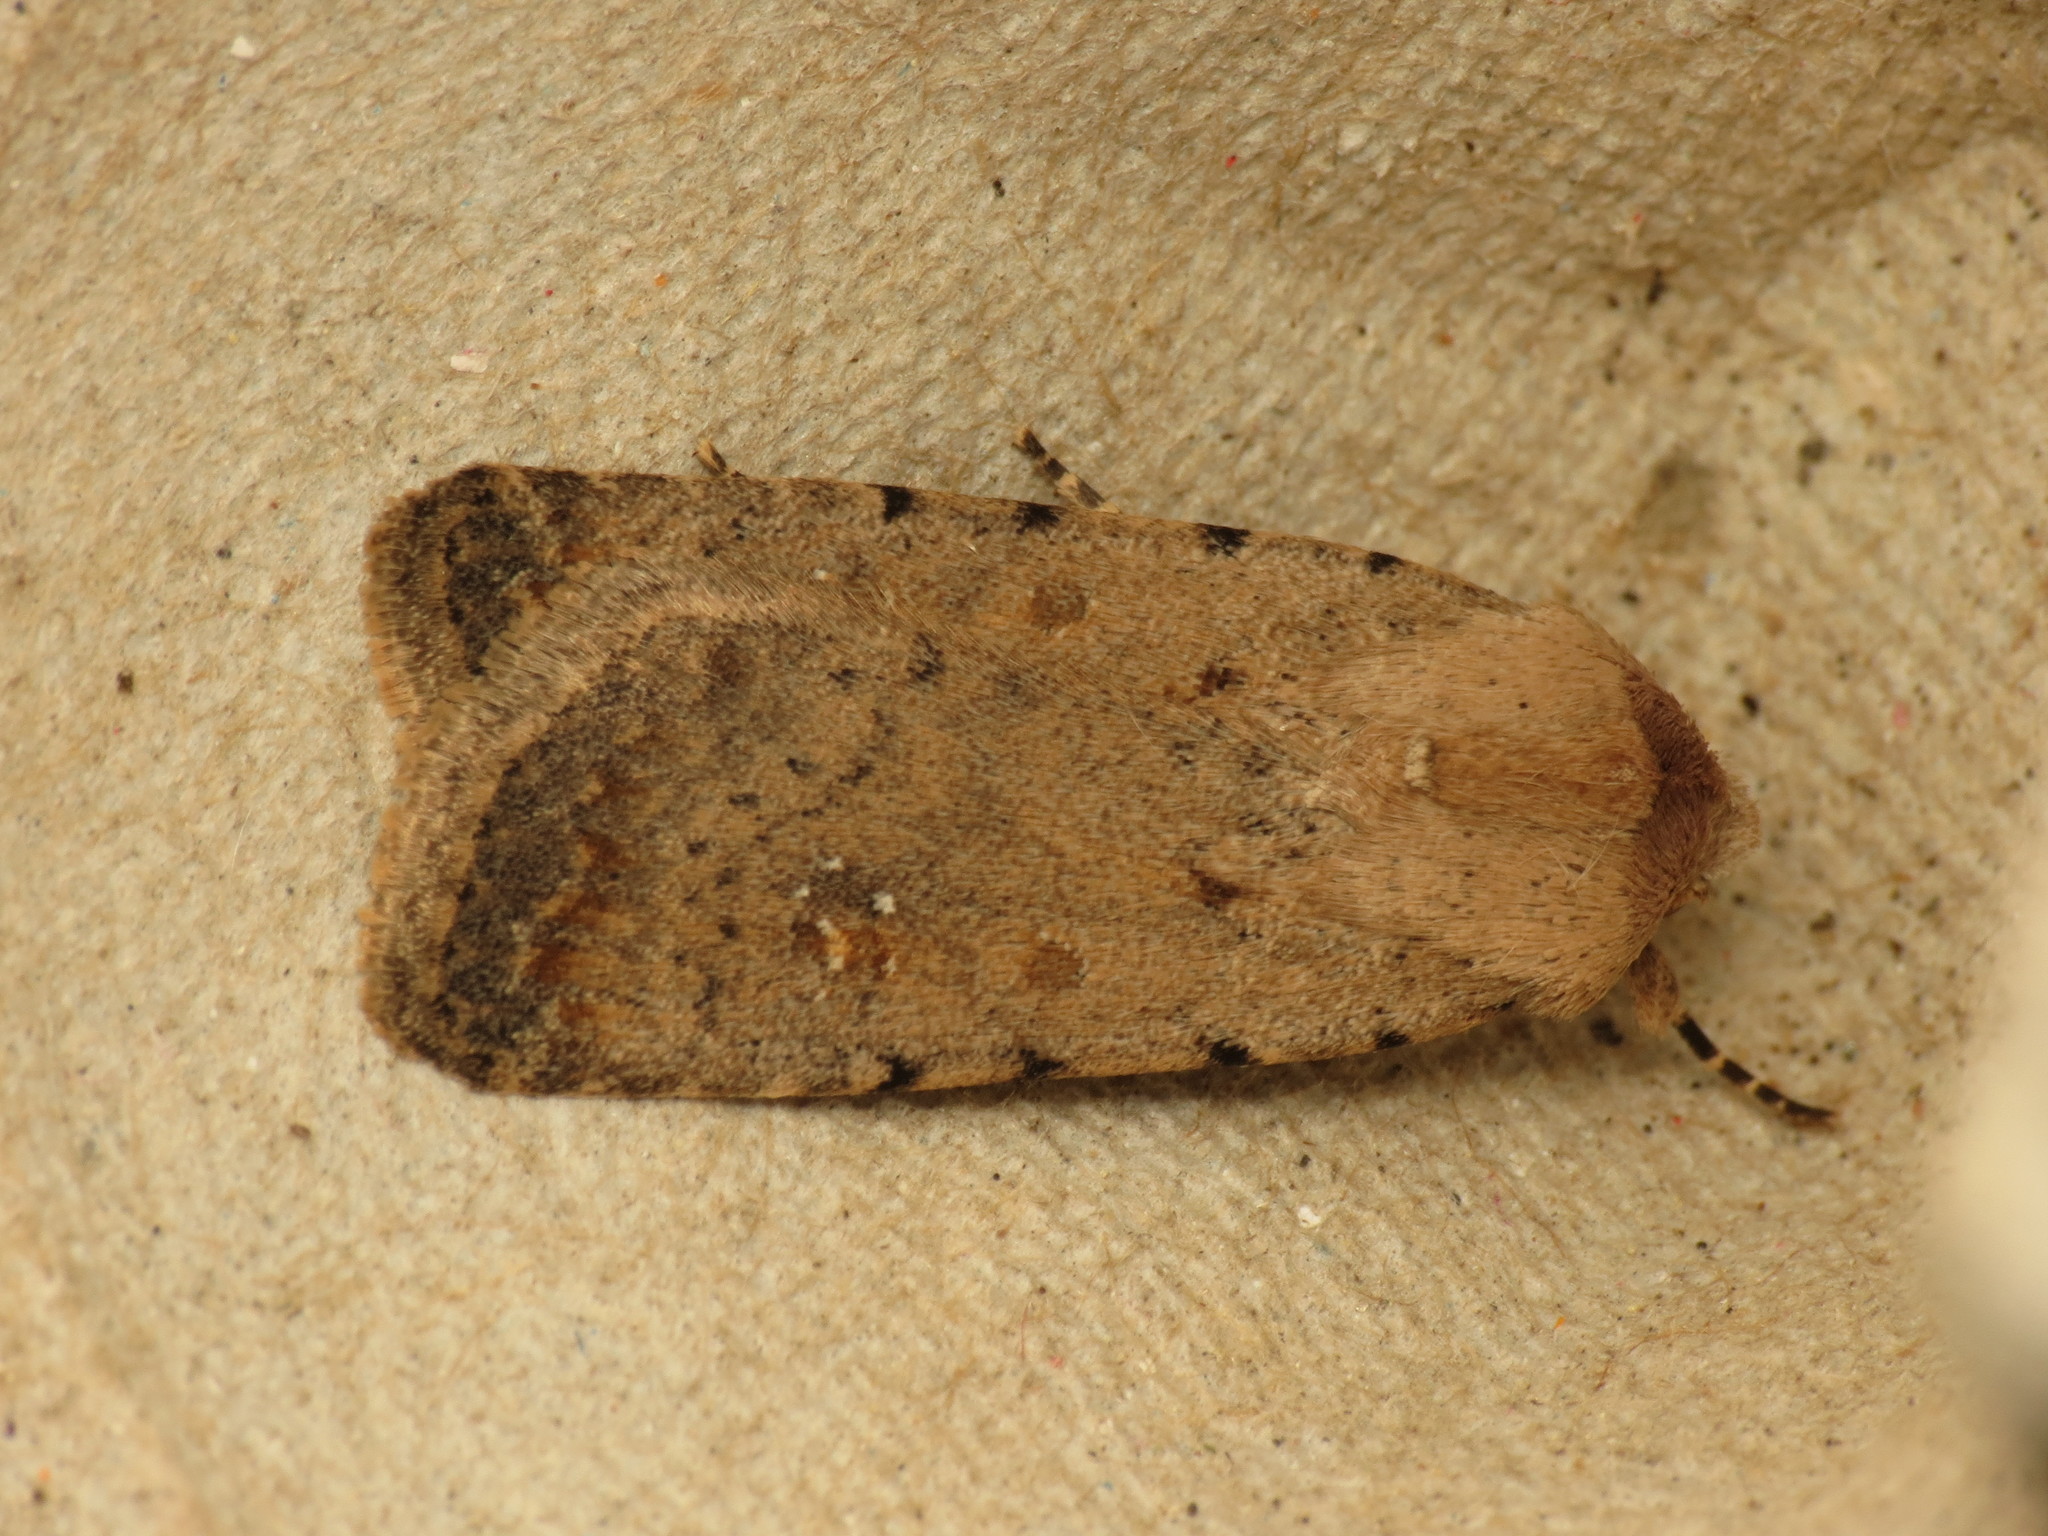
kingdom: Animalia
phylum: Arthropoda
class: Insecta
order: Lepidoptera
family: Noctuidae
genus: Caradrina
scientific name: Caradrina clavipalpis
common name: Pale mottled willow
